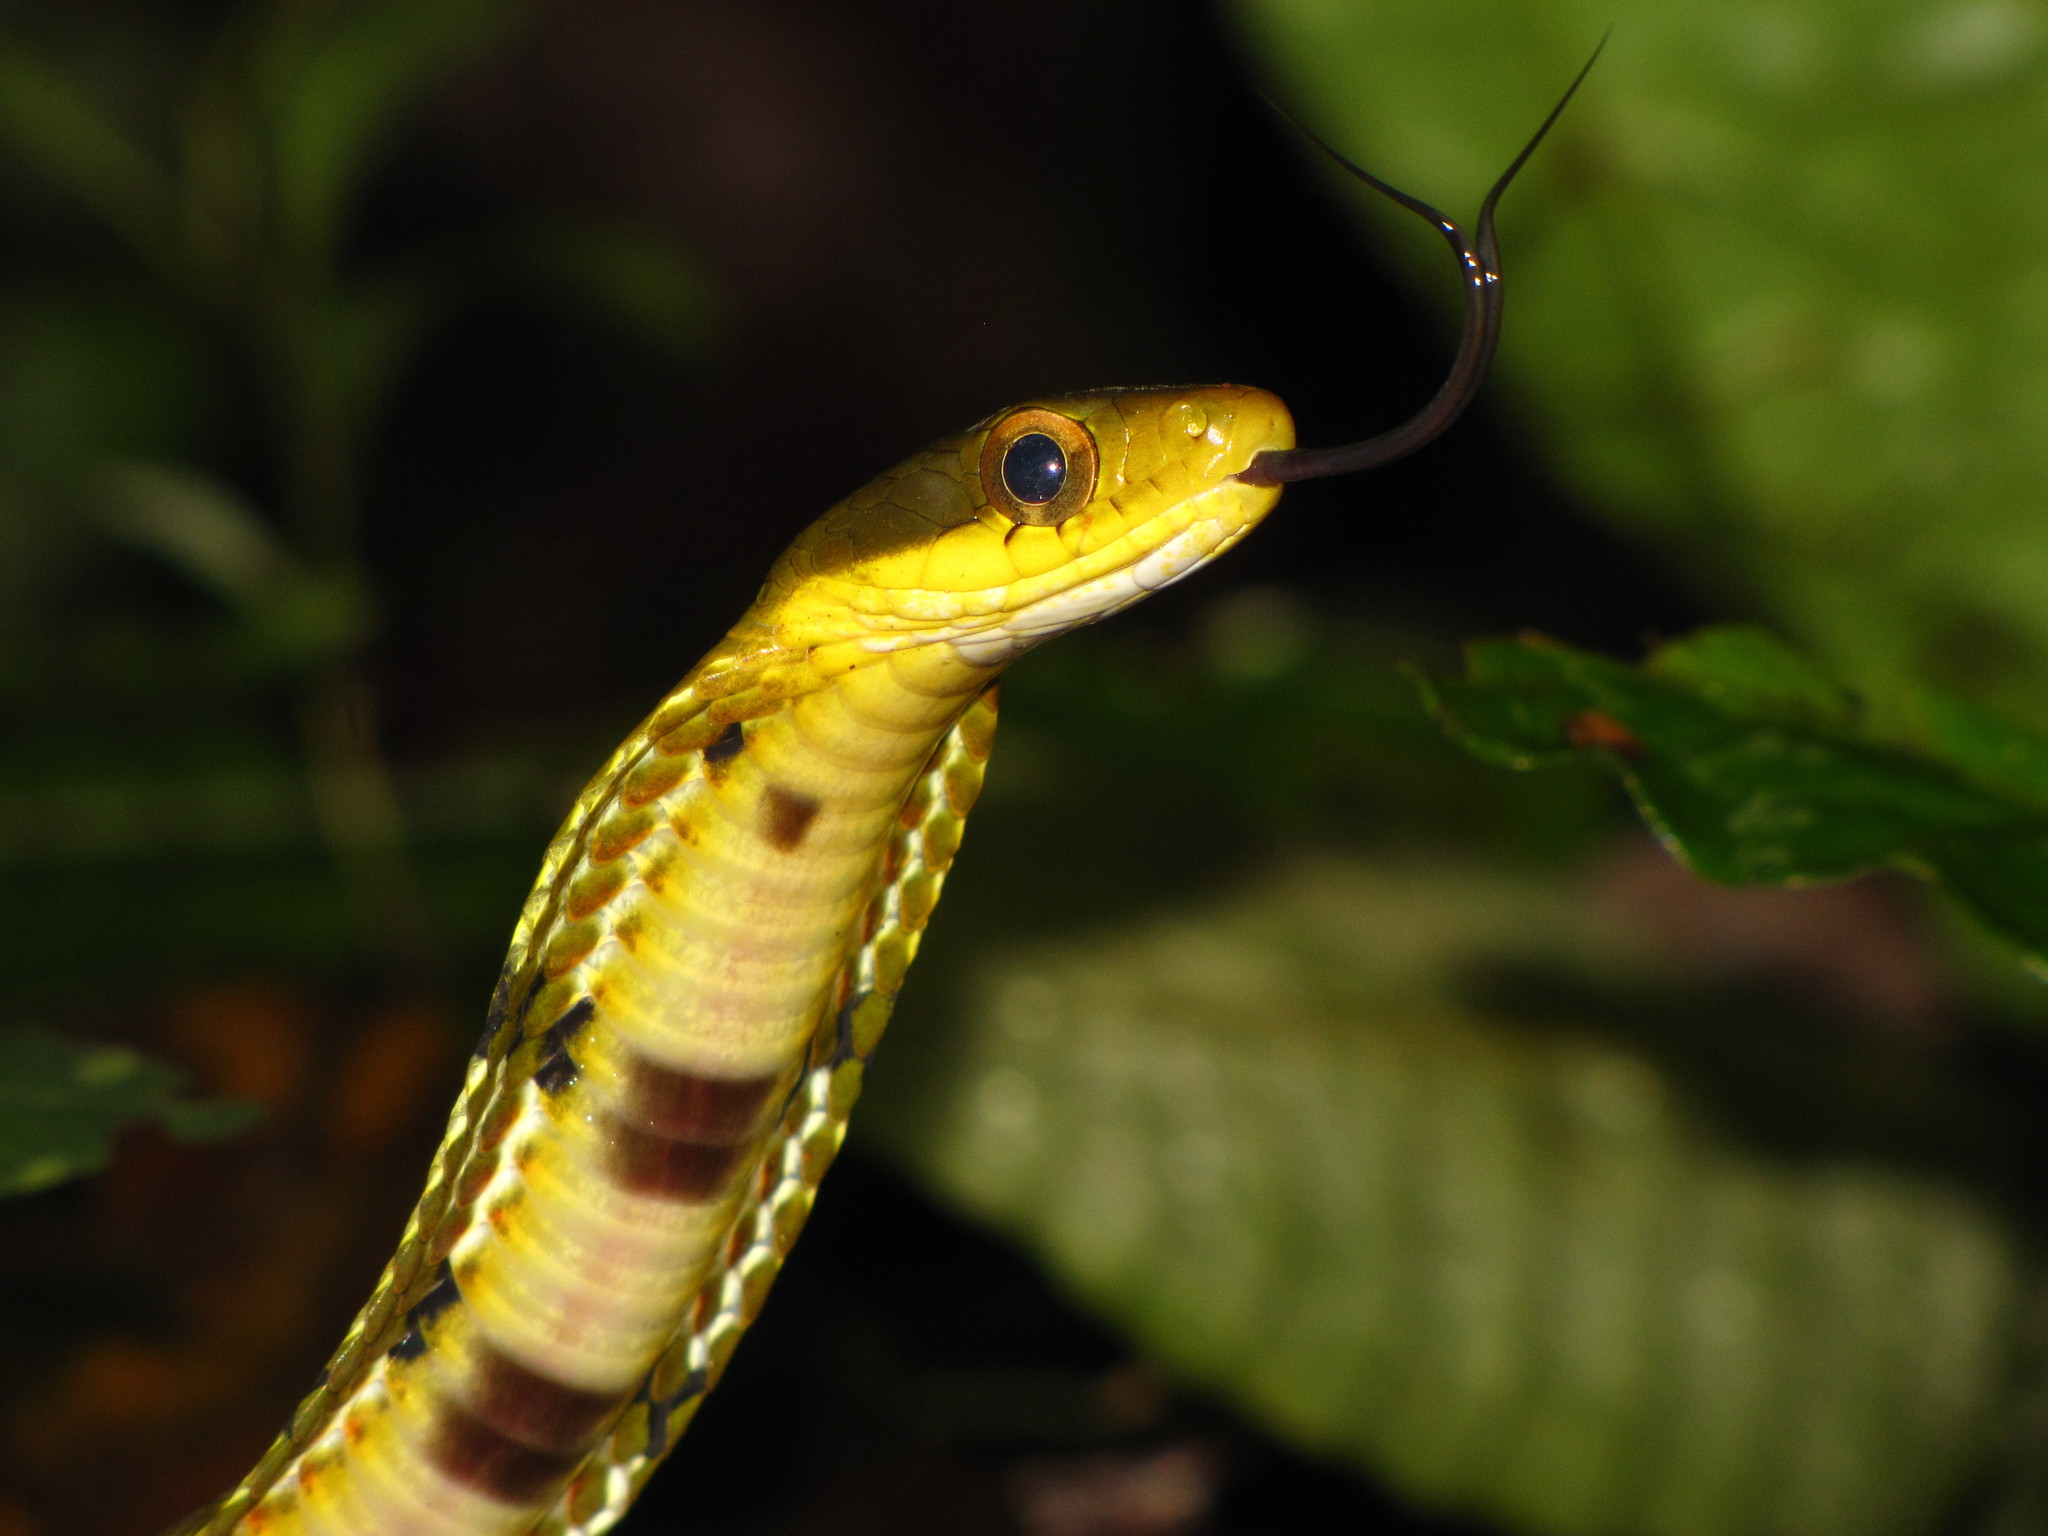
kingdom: Animalia
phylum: Chordata
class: Squamata
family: Colubridae
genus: Pseudoxenodon
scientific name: Pseudoxenodon macrops
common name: Big-eyed mountain keelback
